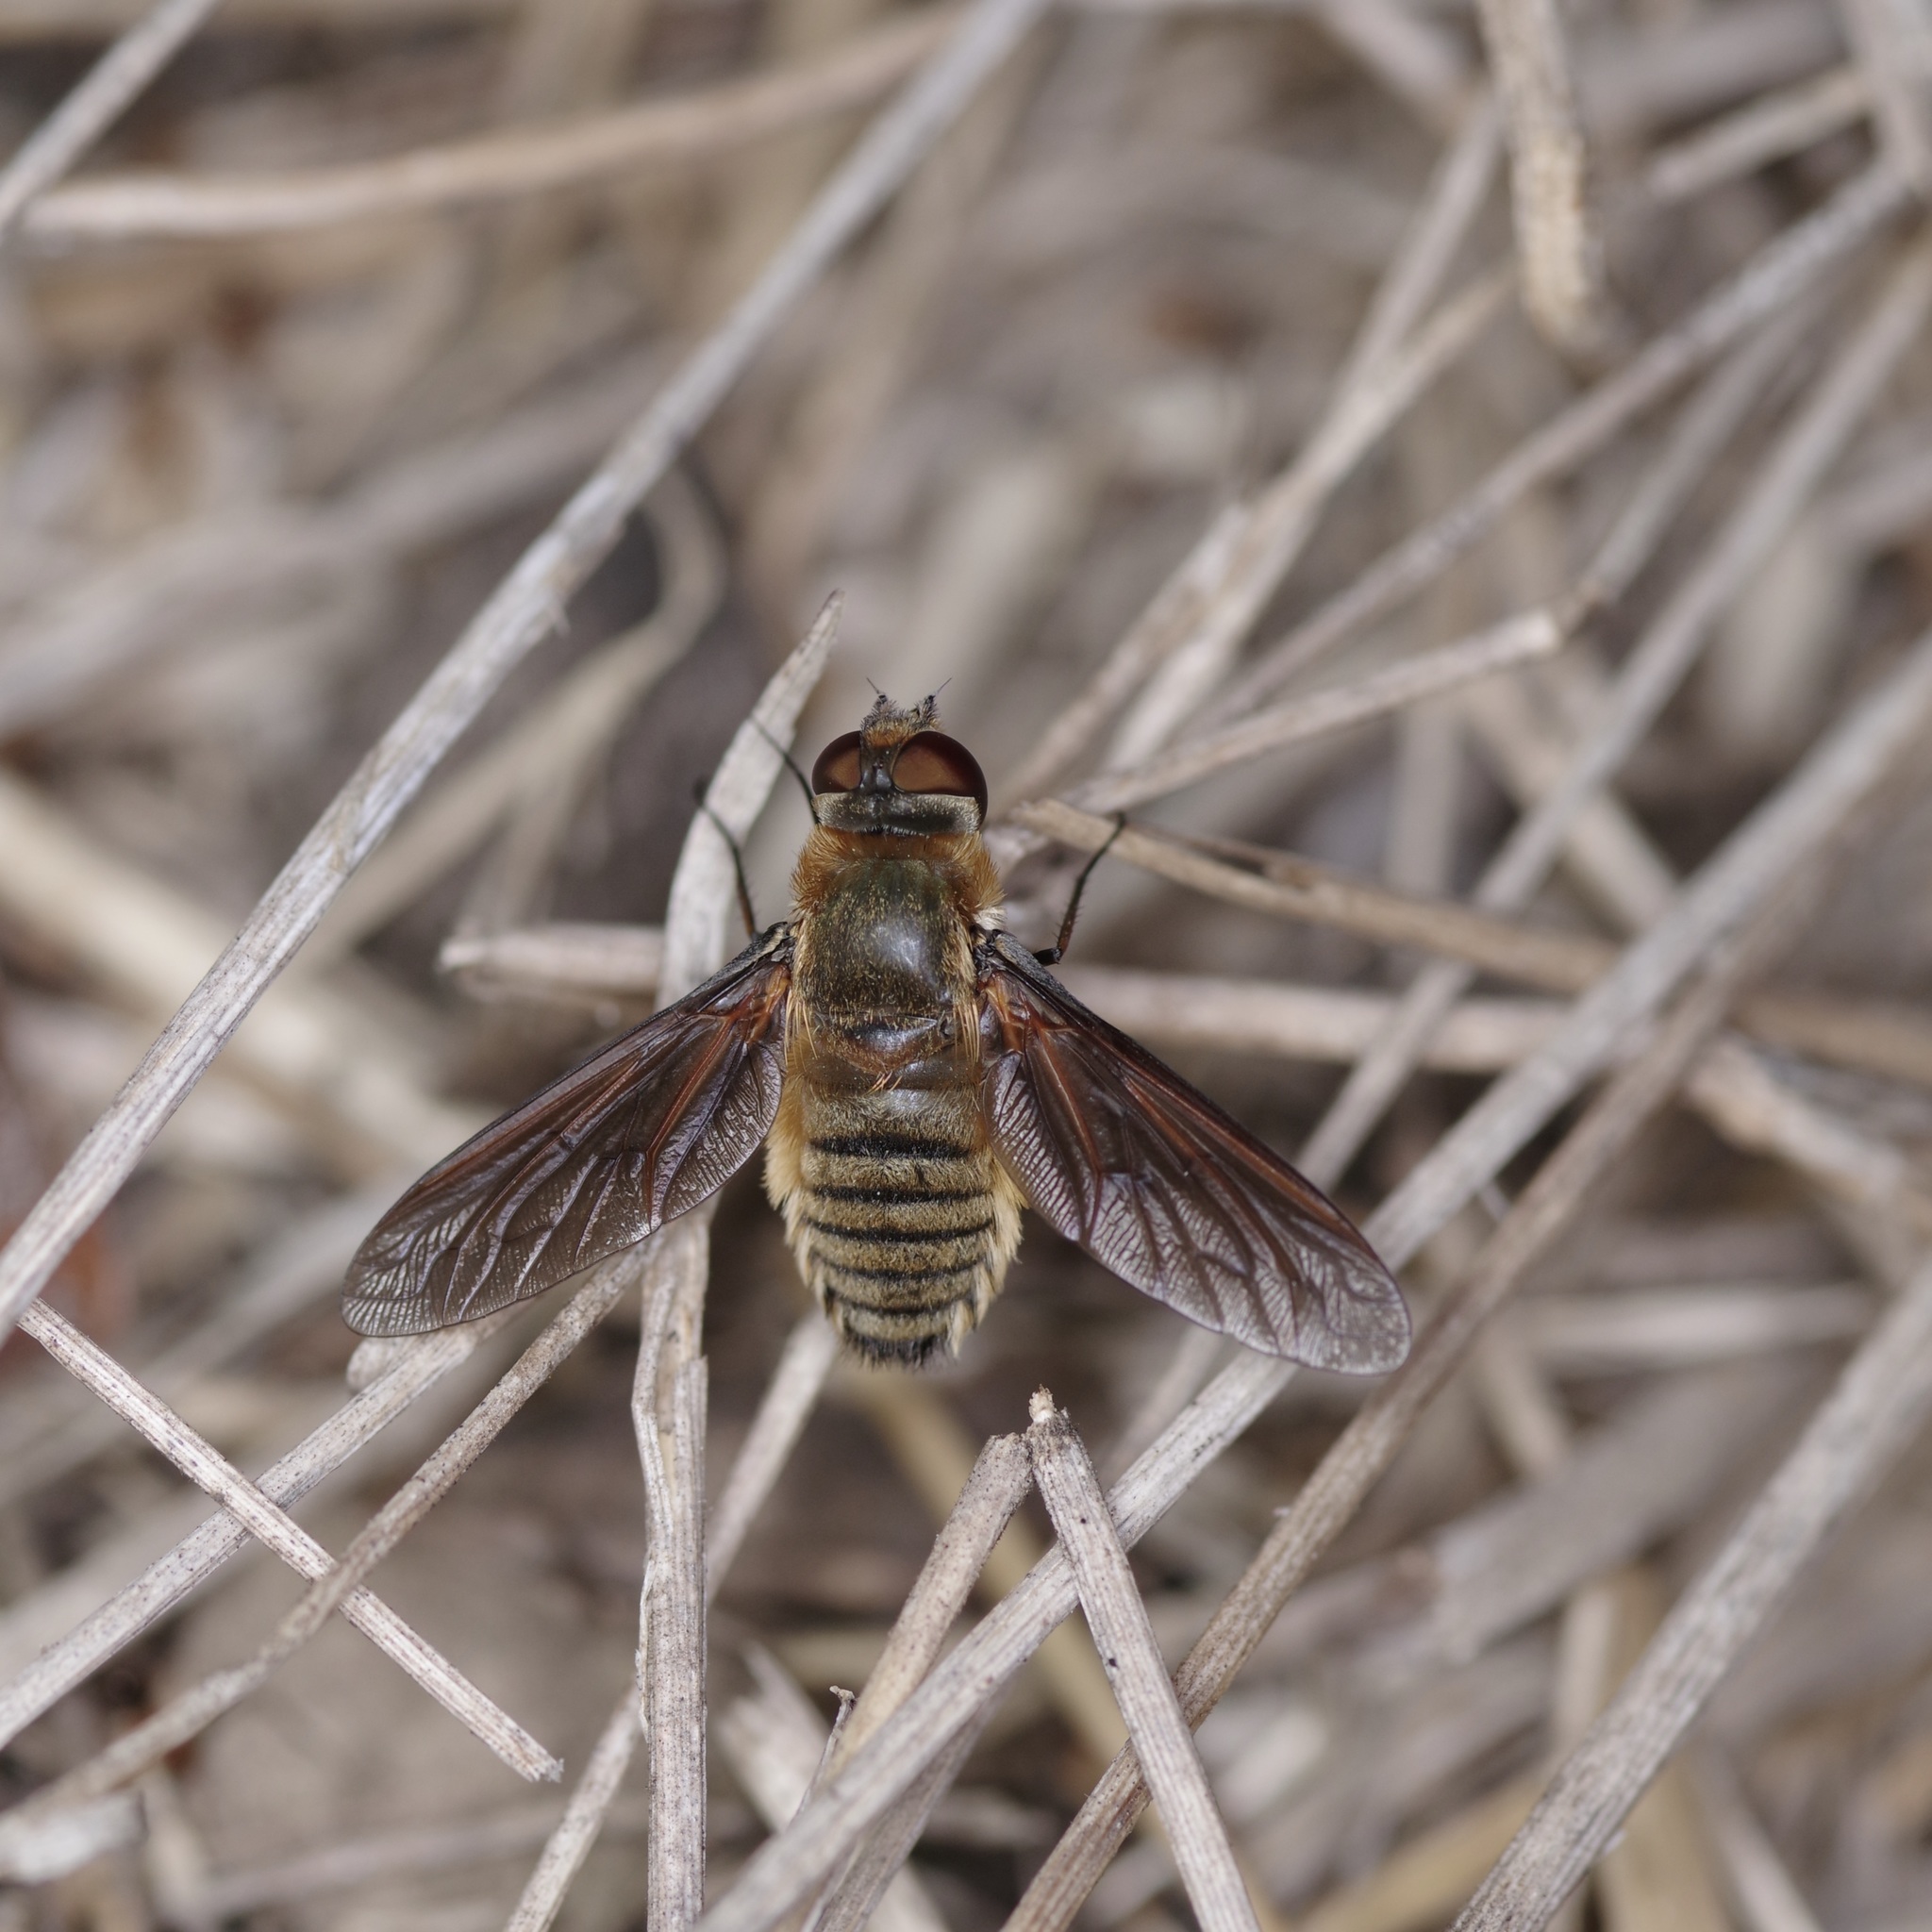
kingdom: Animalia
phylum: Arthropoda
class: Insecta
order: Diptera
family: Bombyliidae
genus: Poecilanthrax
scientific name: Poecilanthrax lucifer
